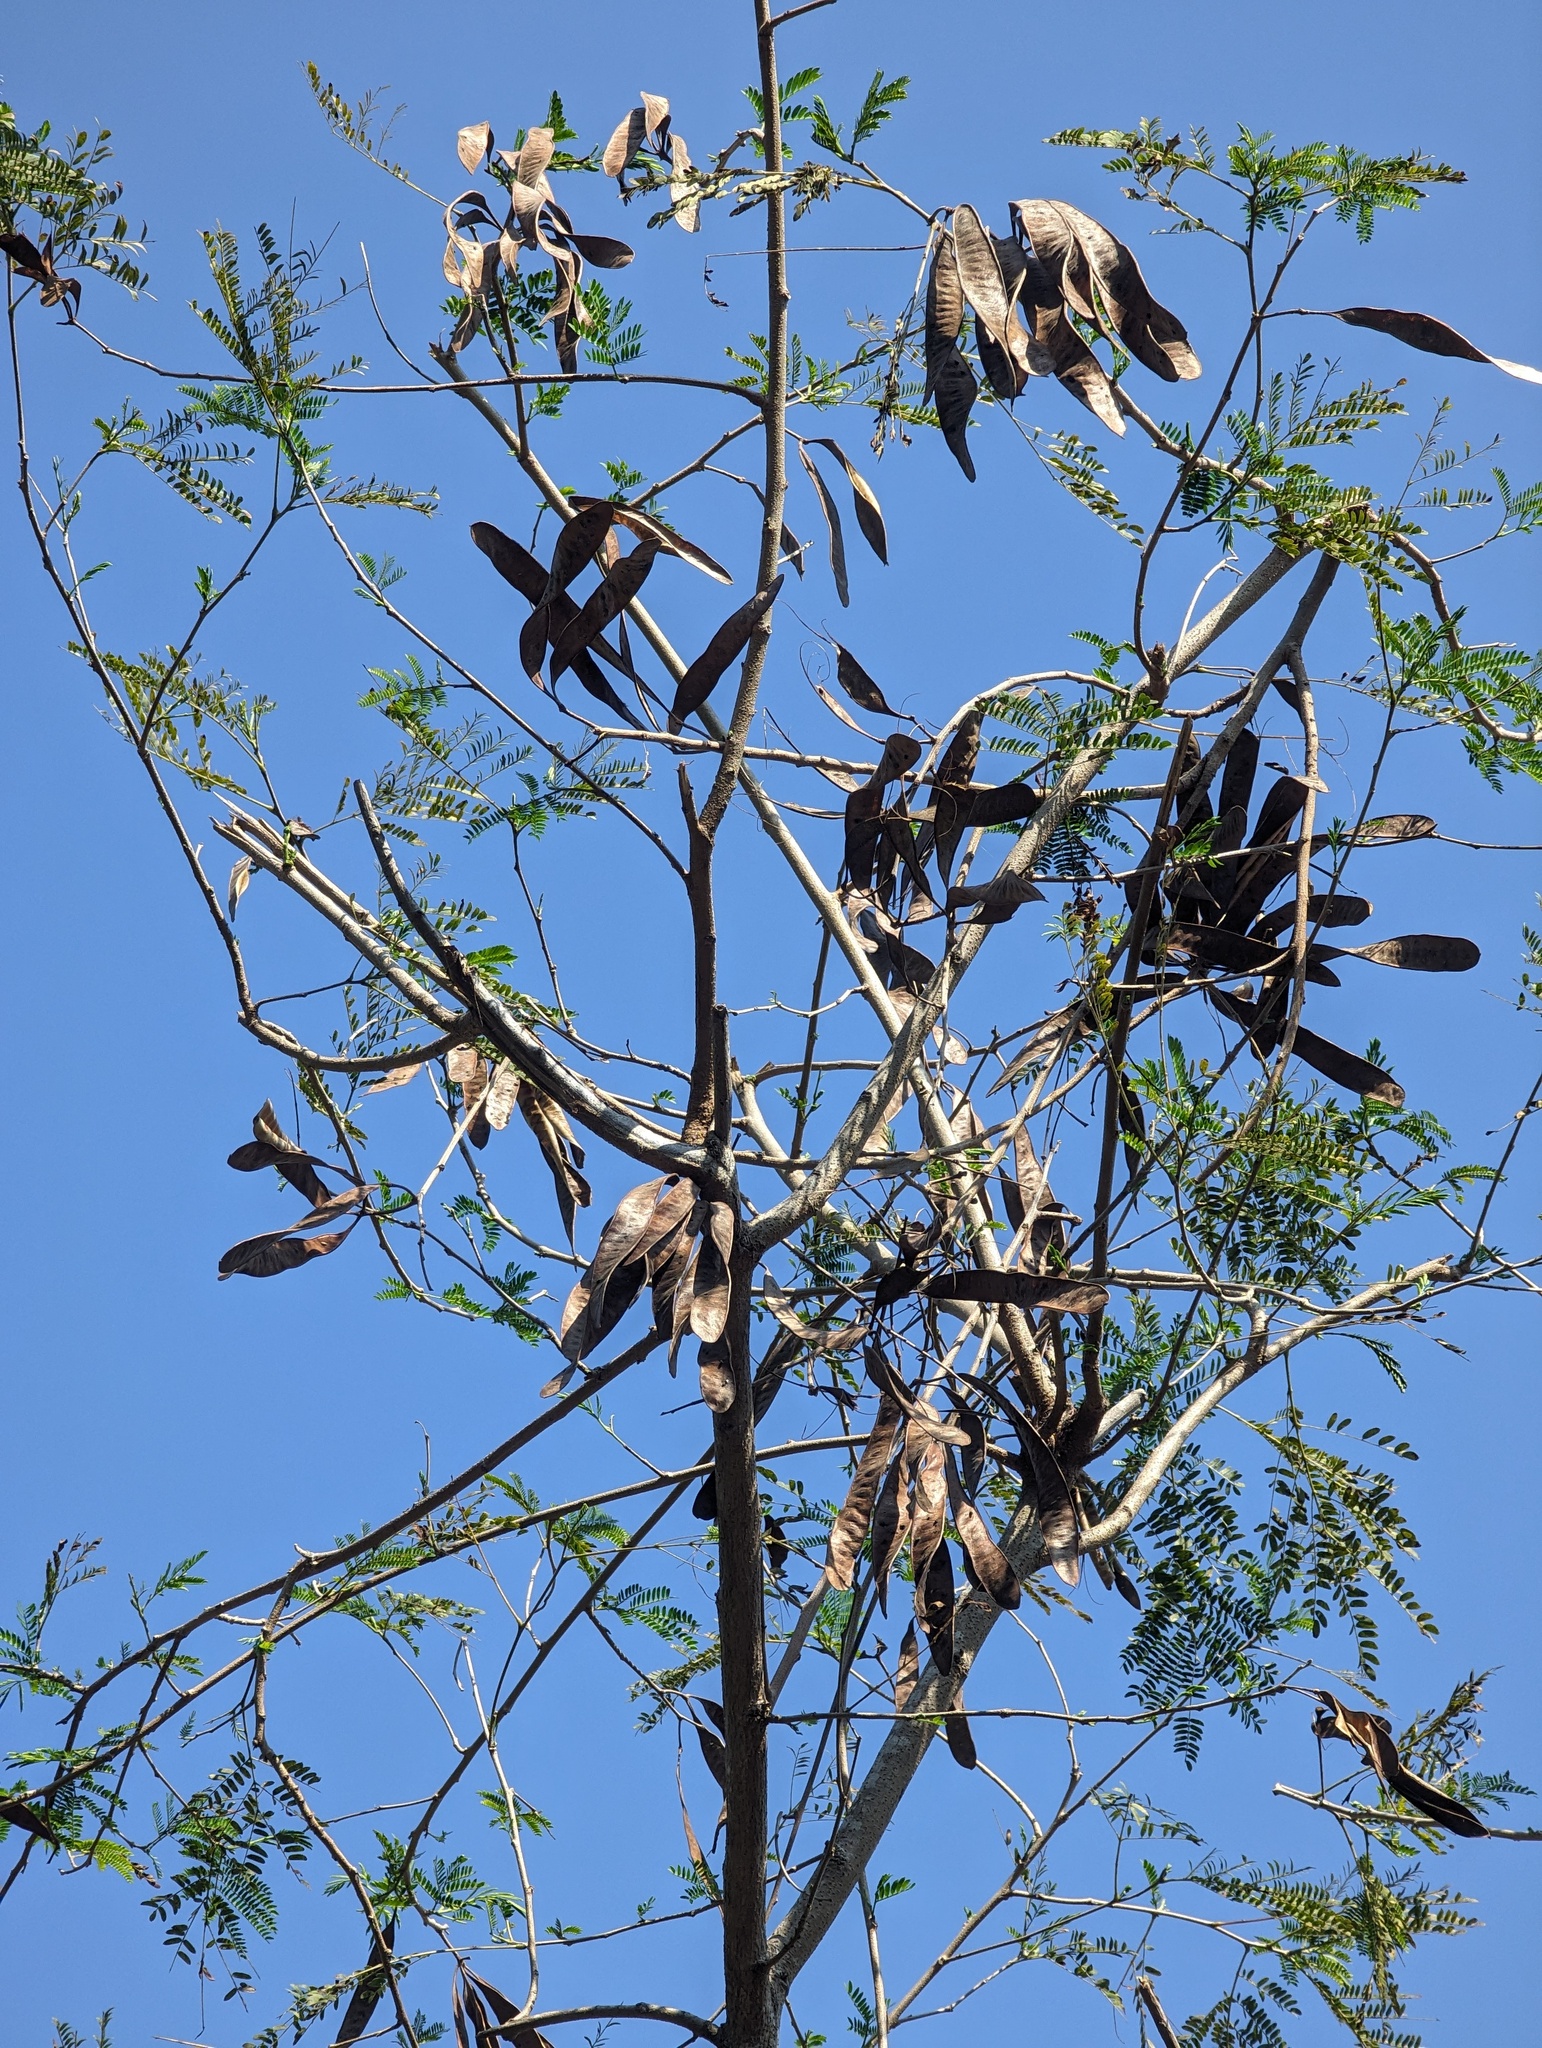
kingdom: Plantae
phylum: Tracheophyta
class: Magnoliopsida
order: Fabales
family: Fabaceae
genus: Leucaena
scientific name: Leucaena leucocephala
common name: White leadtree
